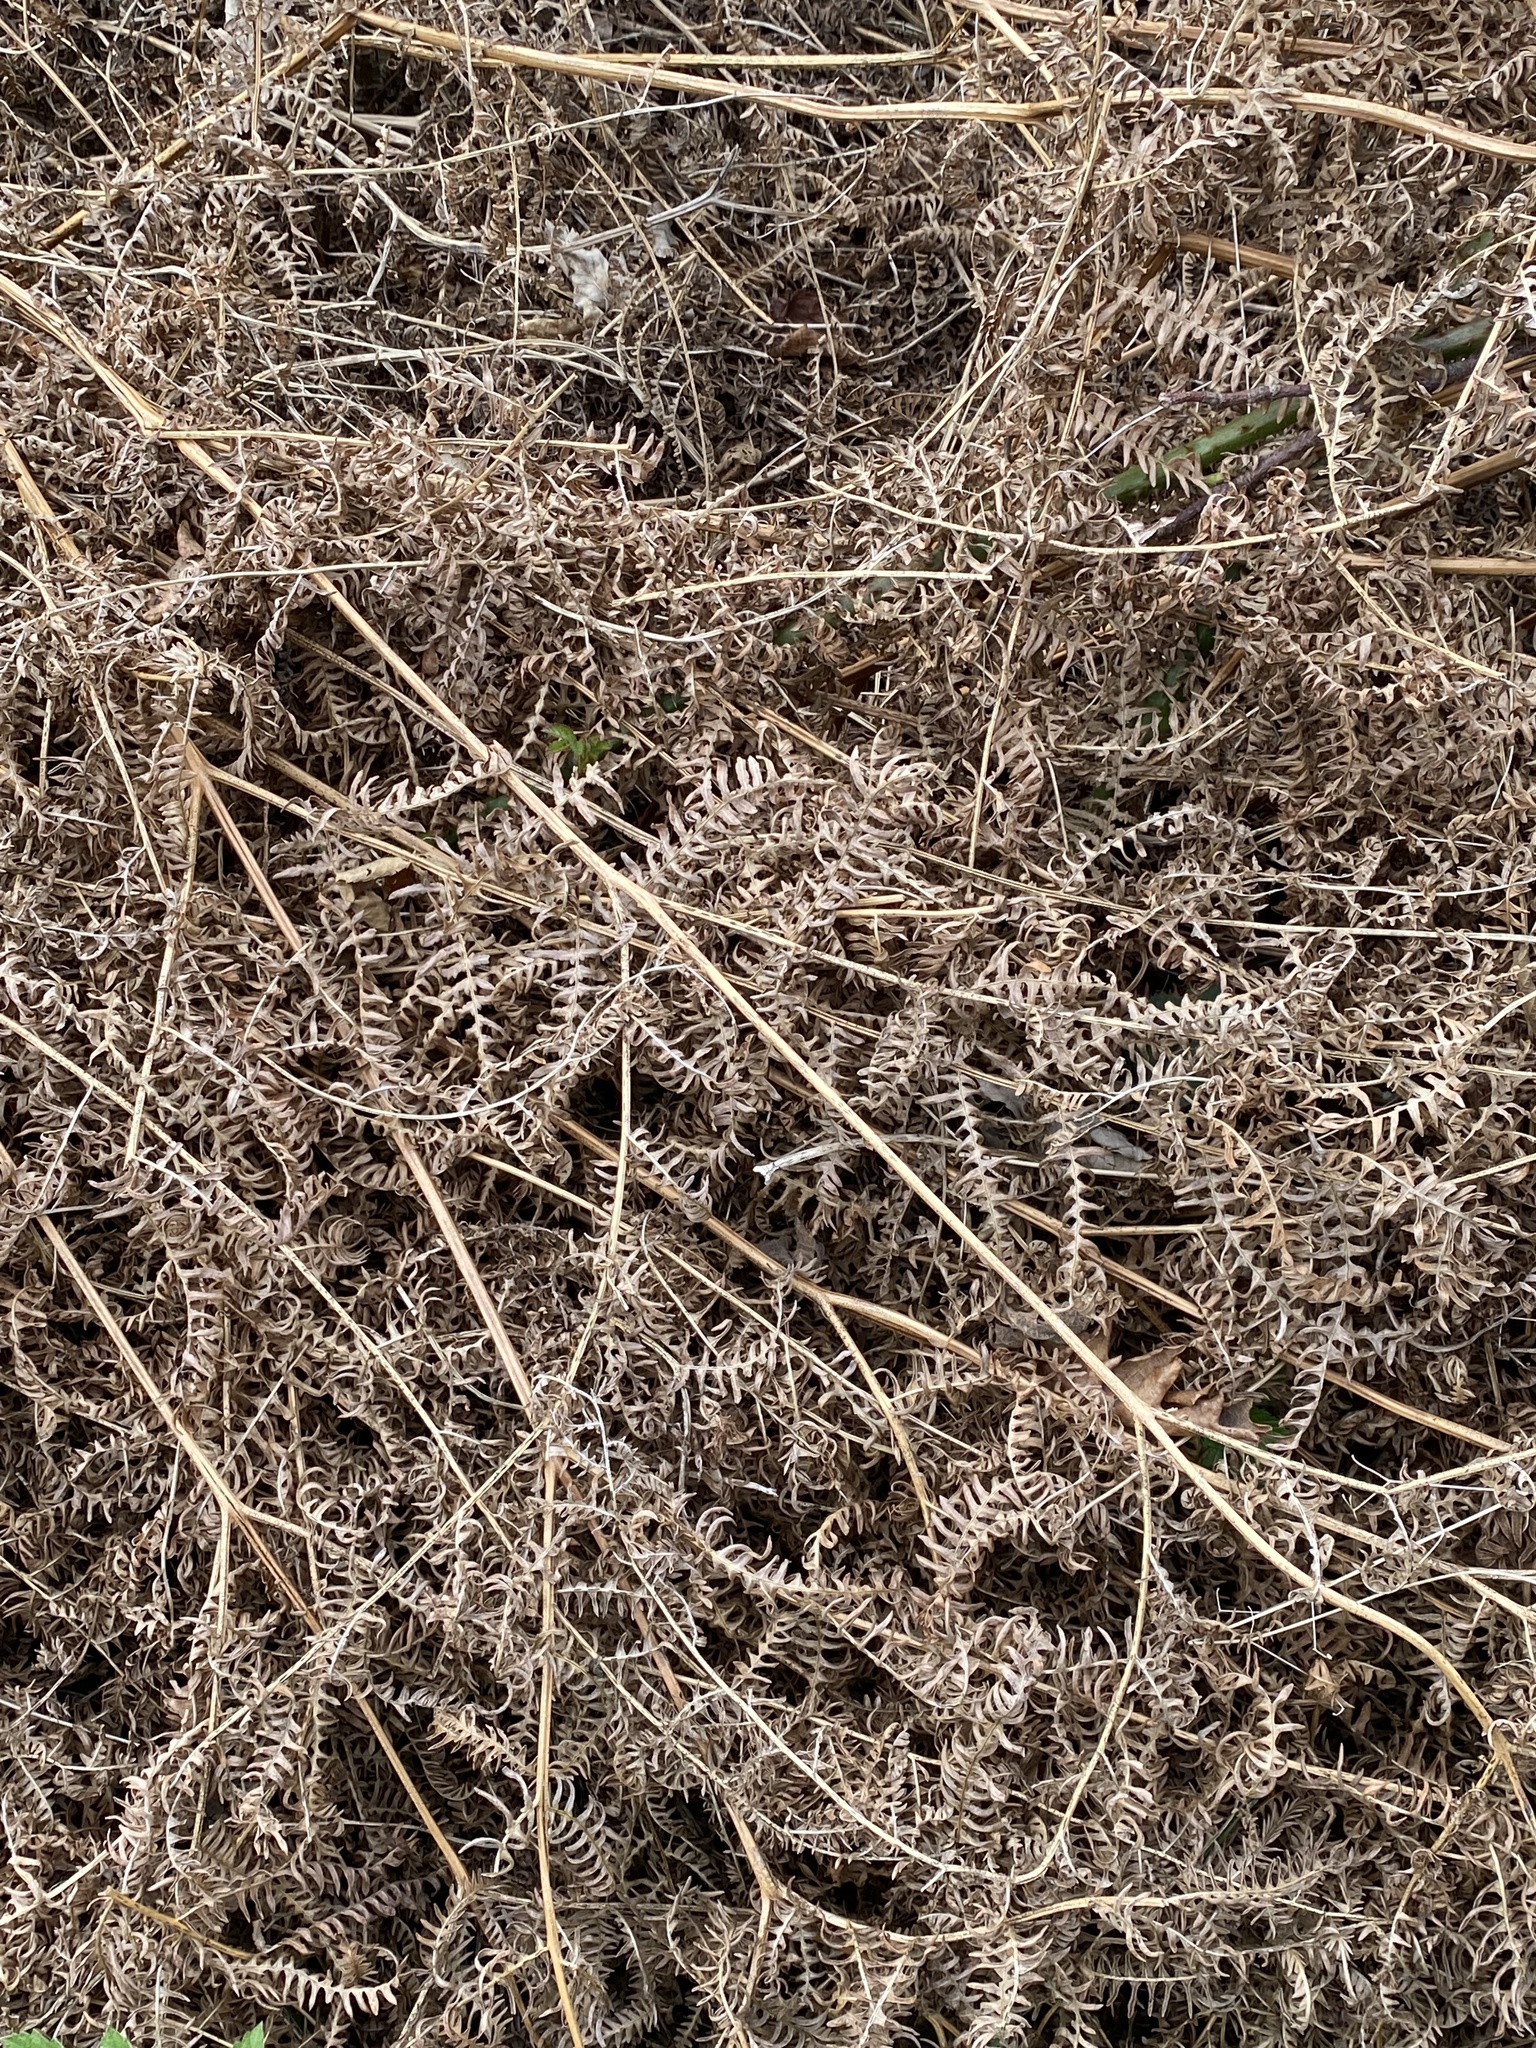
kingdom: Plantae
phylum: Tracheophyta
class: Polypodiopsida
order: Polypodiales
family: Dennstaedtiaceae
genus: Pteridium
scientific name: Pteridium aquilinum
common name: Bracken
